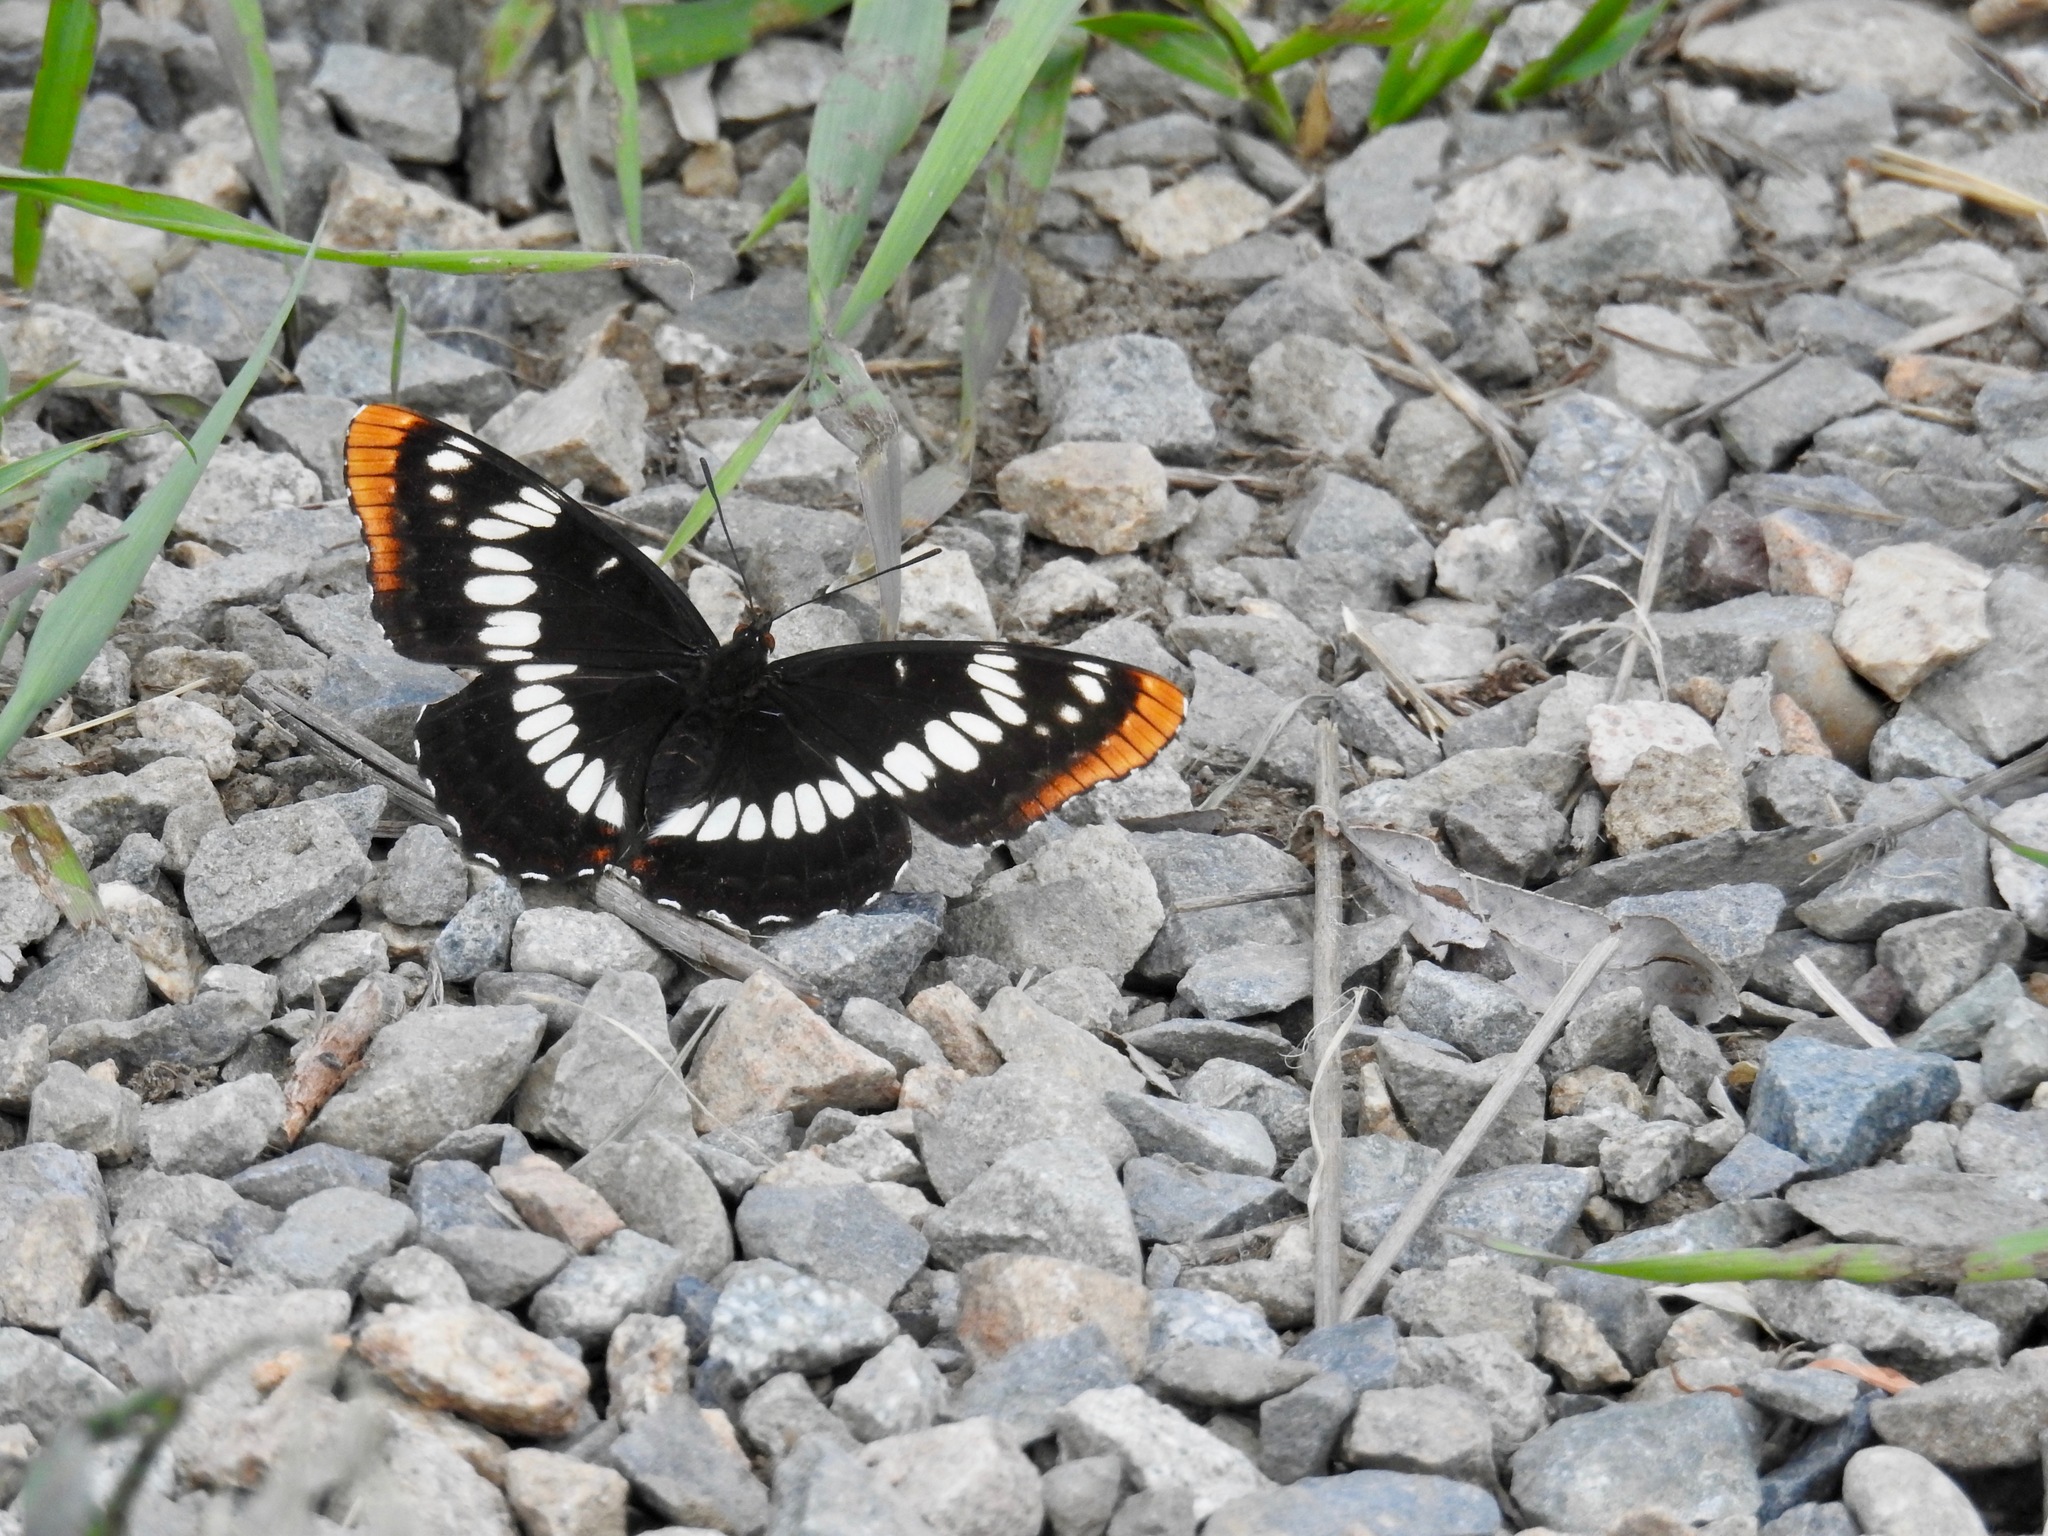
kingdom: Animalia
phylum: Arthropoda
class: Insecta
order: Lepidoptera
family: Nymphalidae
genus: Limenitis
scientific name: Limenitis lorquini
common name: Lorquin's admiral
